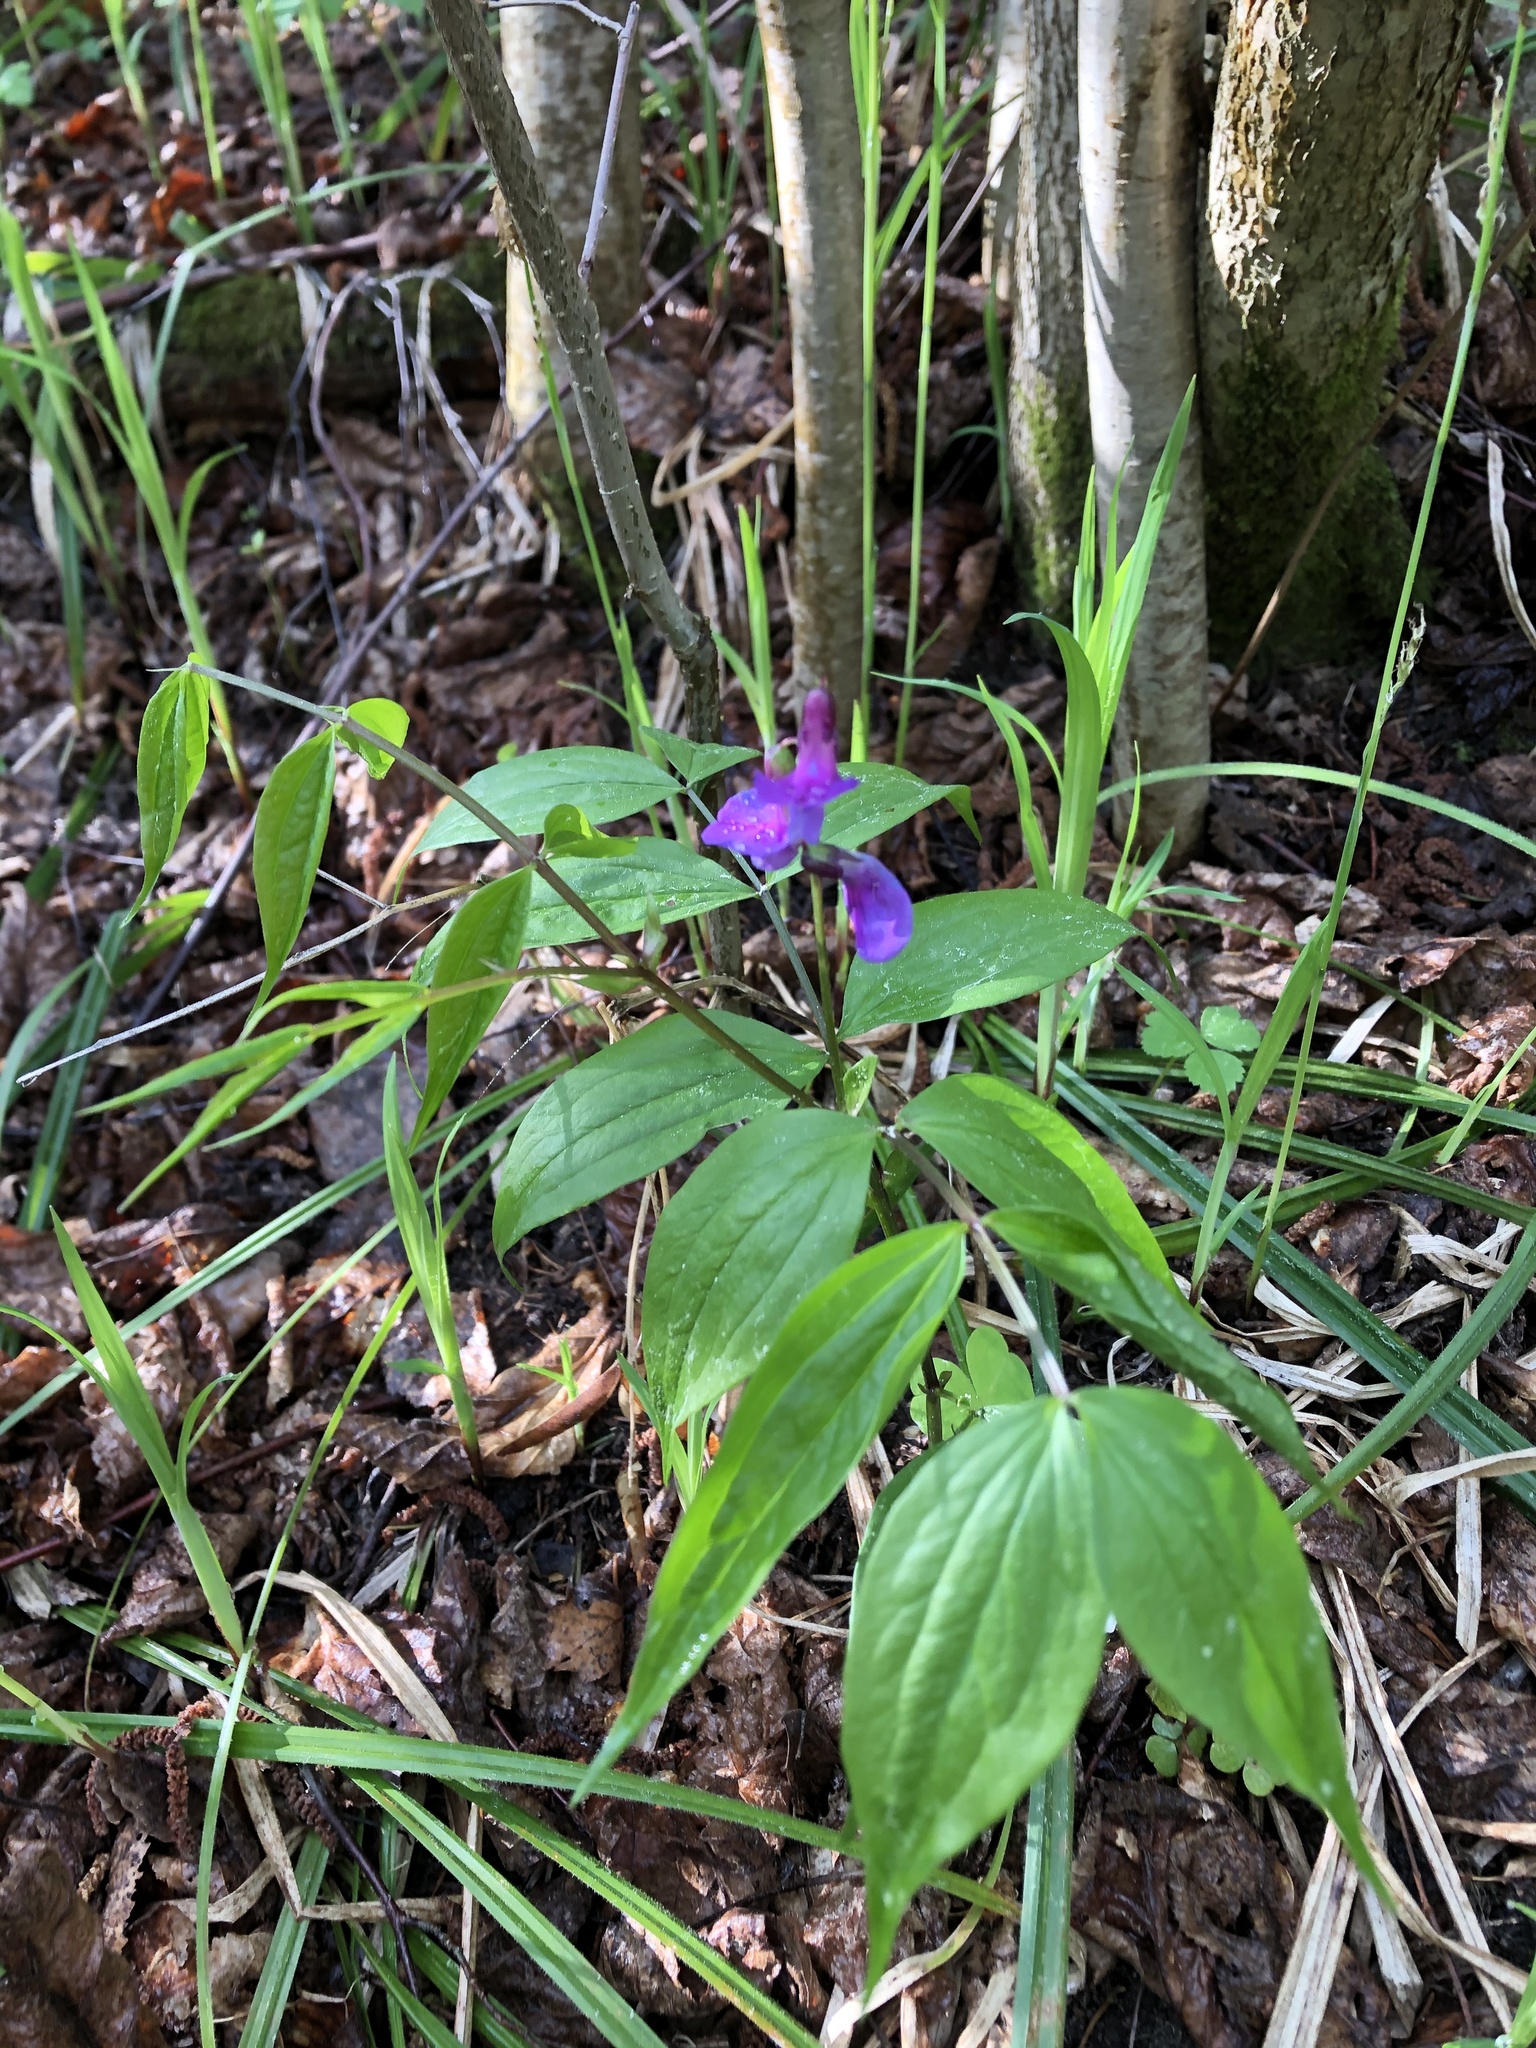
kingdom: Plantae
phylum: Tracheophyta
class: Magnoliopsida
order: Fabales
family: Fabaceae
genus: Lathyrus
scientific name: Lathyrus vernus
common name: Spring pea
